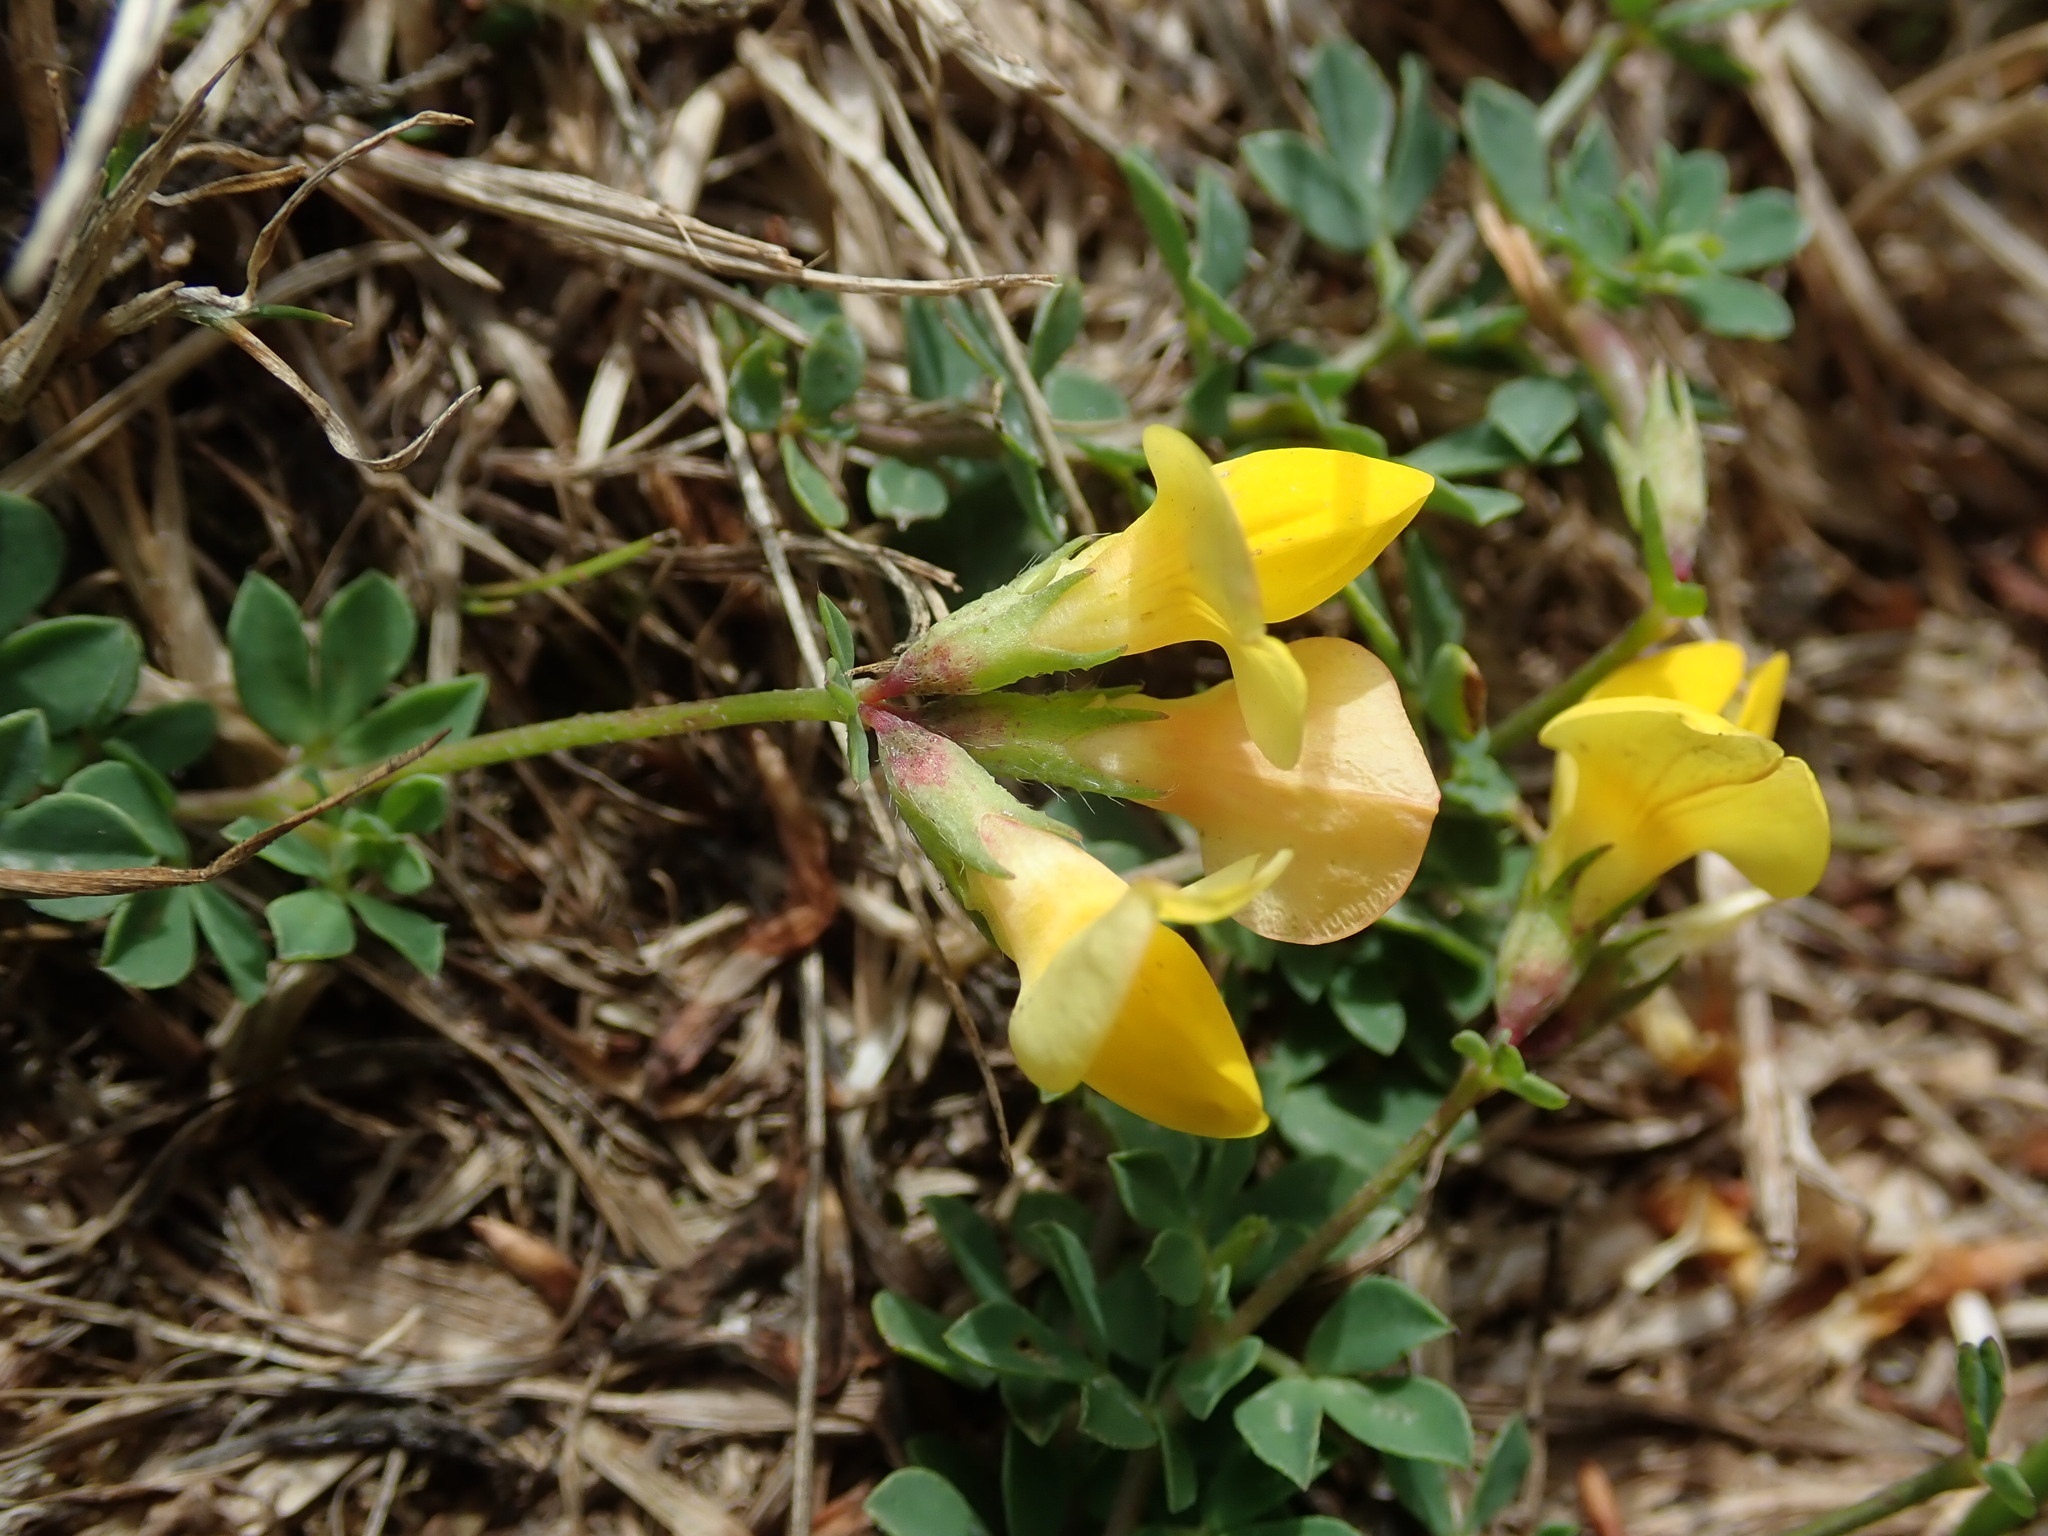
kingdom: Plantae
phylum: Tracheophyta
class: Magnoliopsida
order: Fabales
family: Fabaceae
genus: Lotus
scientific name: Lotus corniculatus
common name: Common bird's-foot-trefoil
